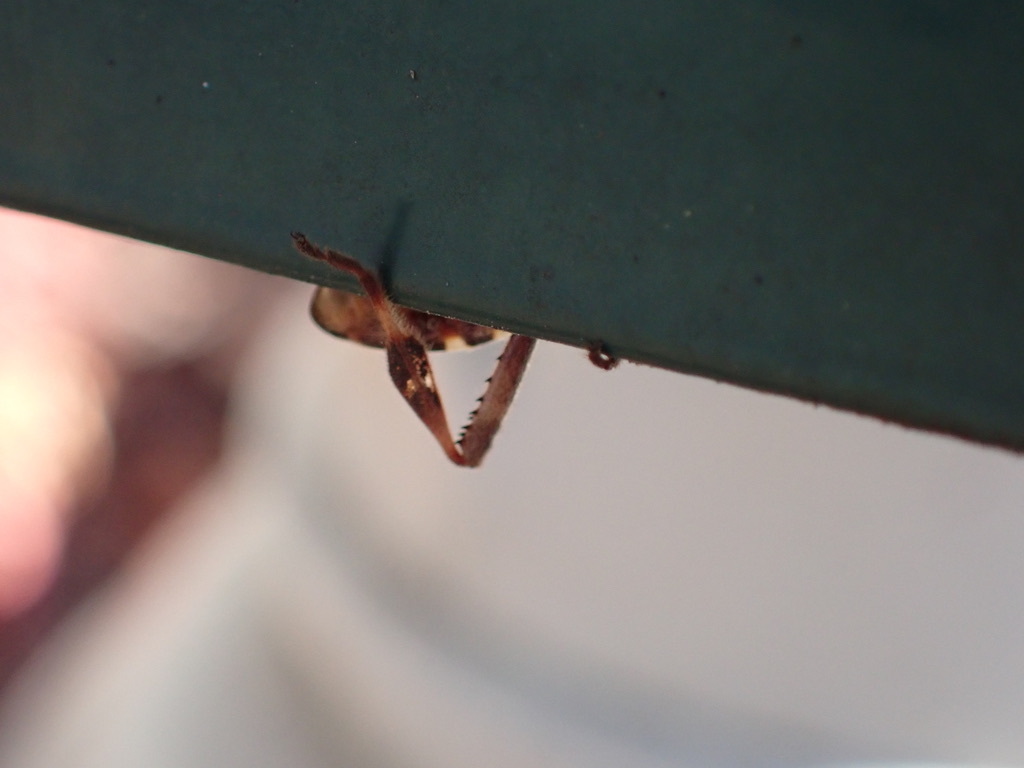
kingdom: Animalia
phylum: Arthropoda
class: Insecta
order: Hemiptera
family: Coreidae
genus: Leptoglossus
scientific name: Leptoglossus occidentalis
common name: Western conifer-seed bug
